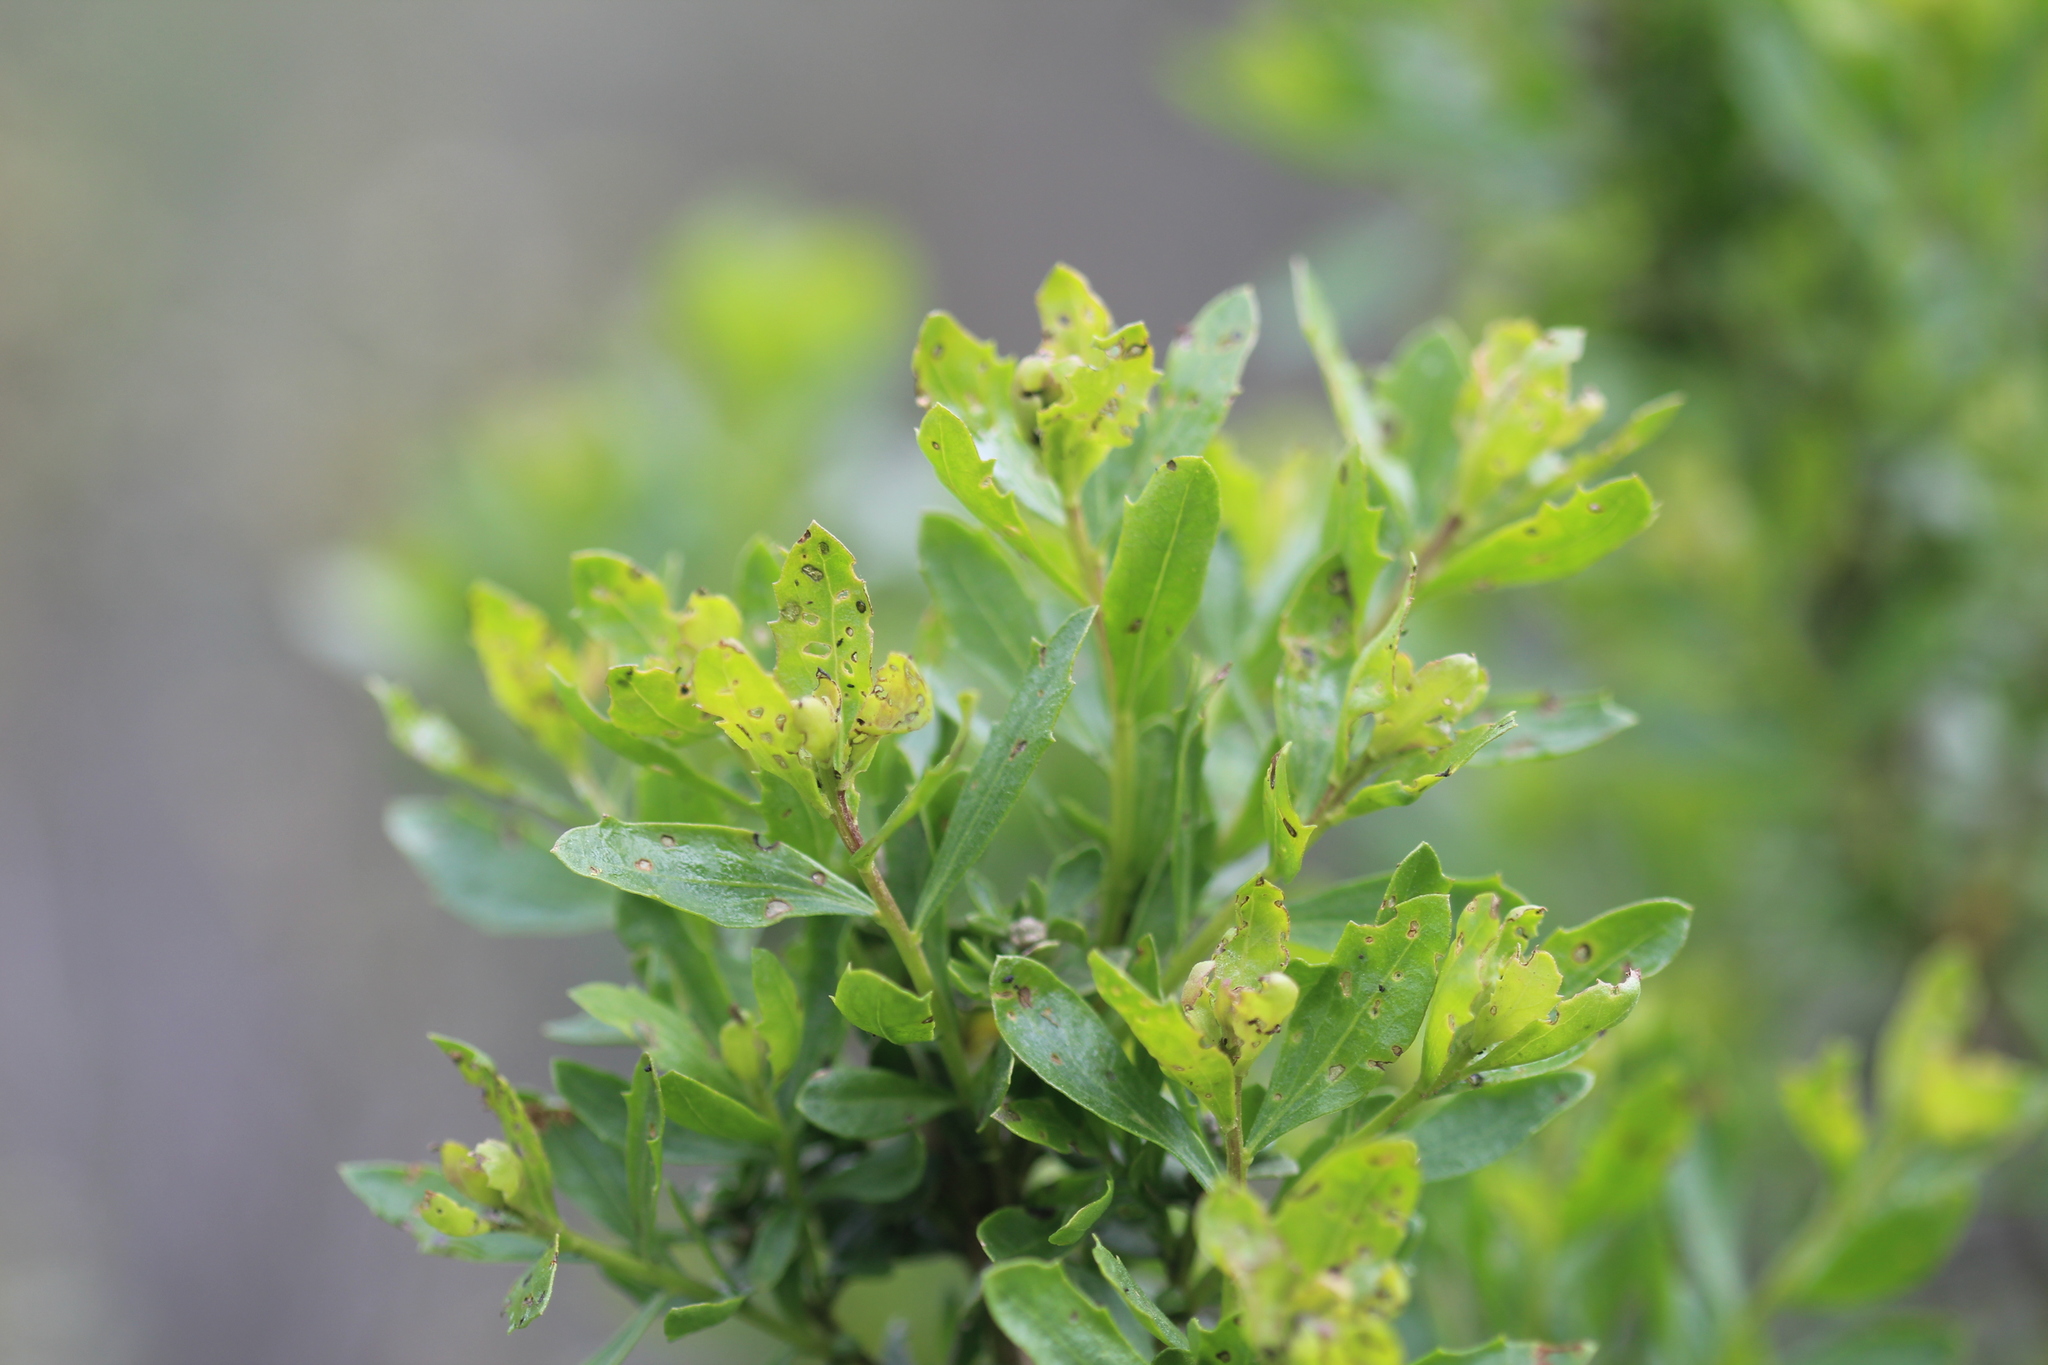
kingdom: Plantae
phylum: Tracheophyta
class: Magnoliopsida
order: Asterales
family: Asteraceae
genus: Baccharis
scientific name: Baccharis pilularis
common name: Coyotebrush
